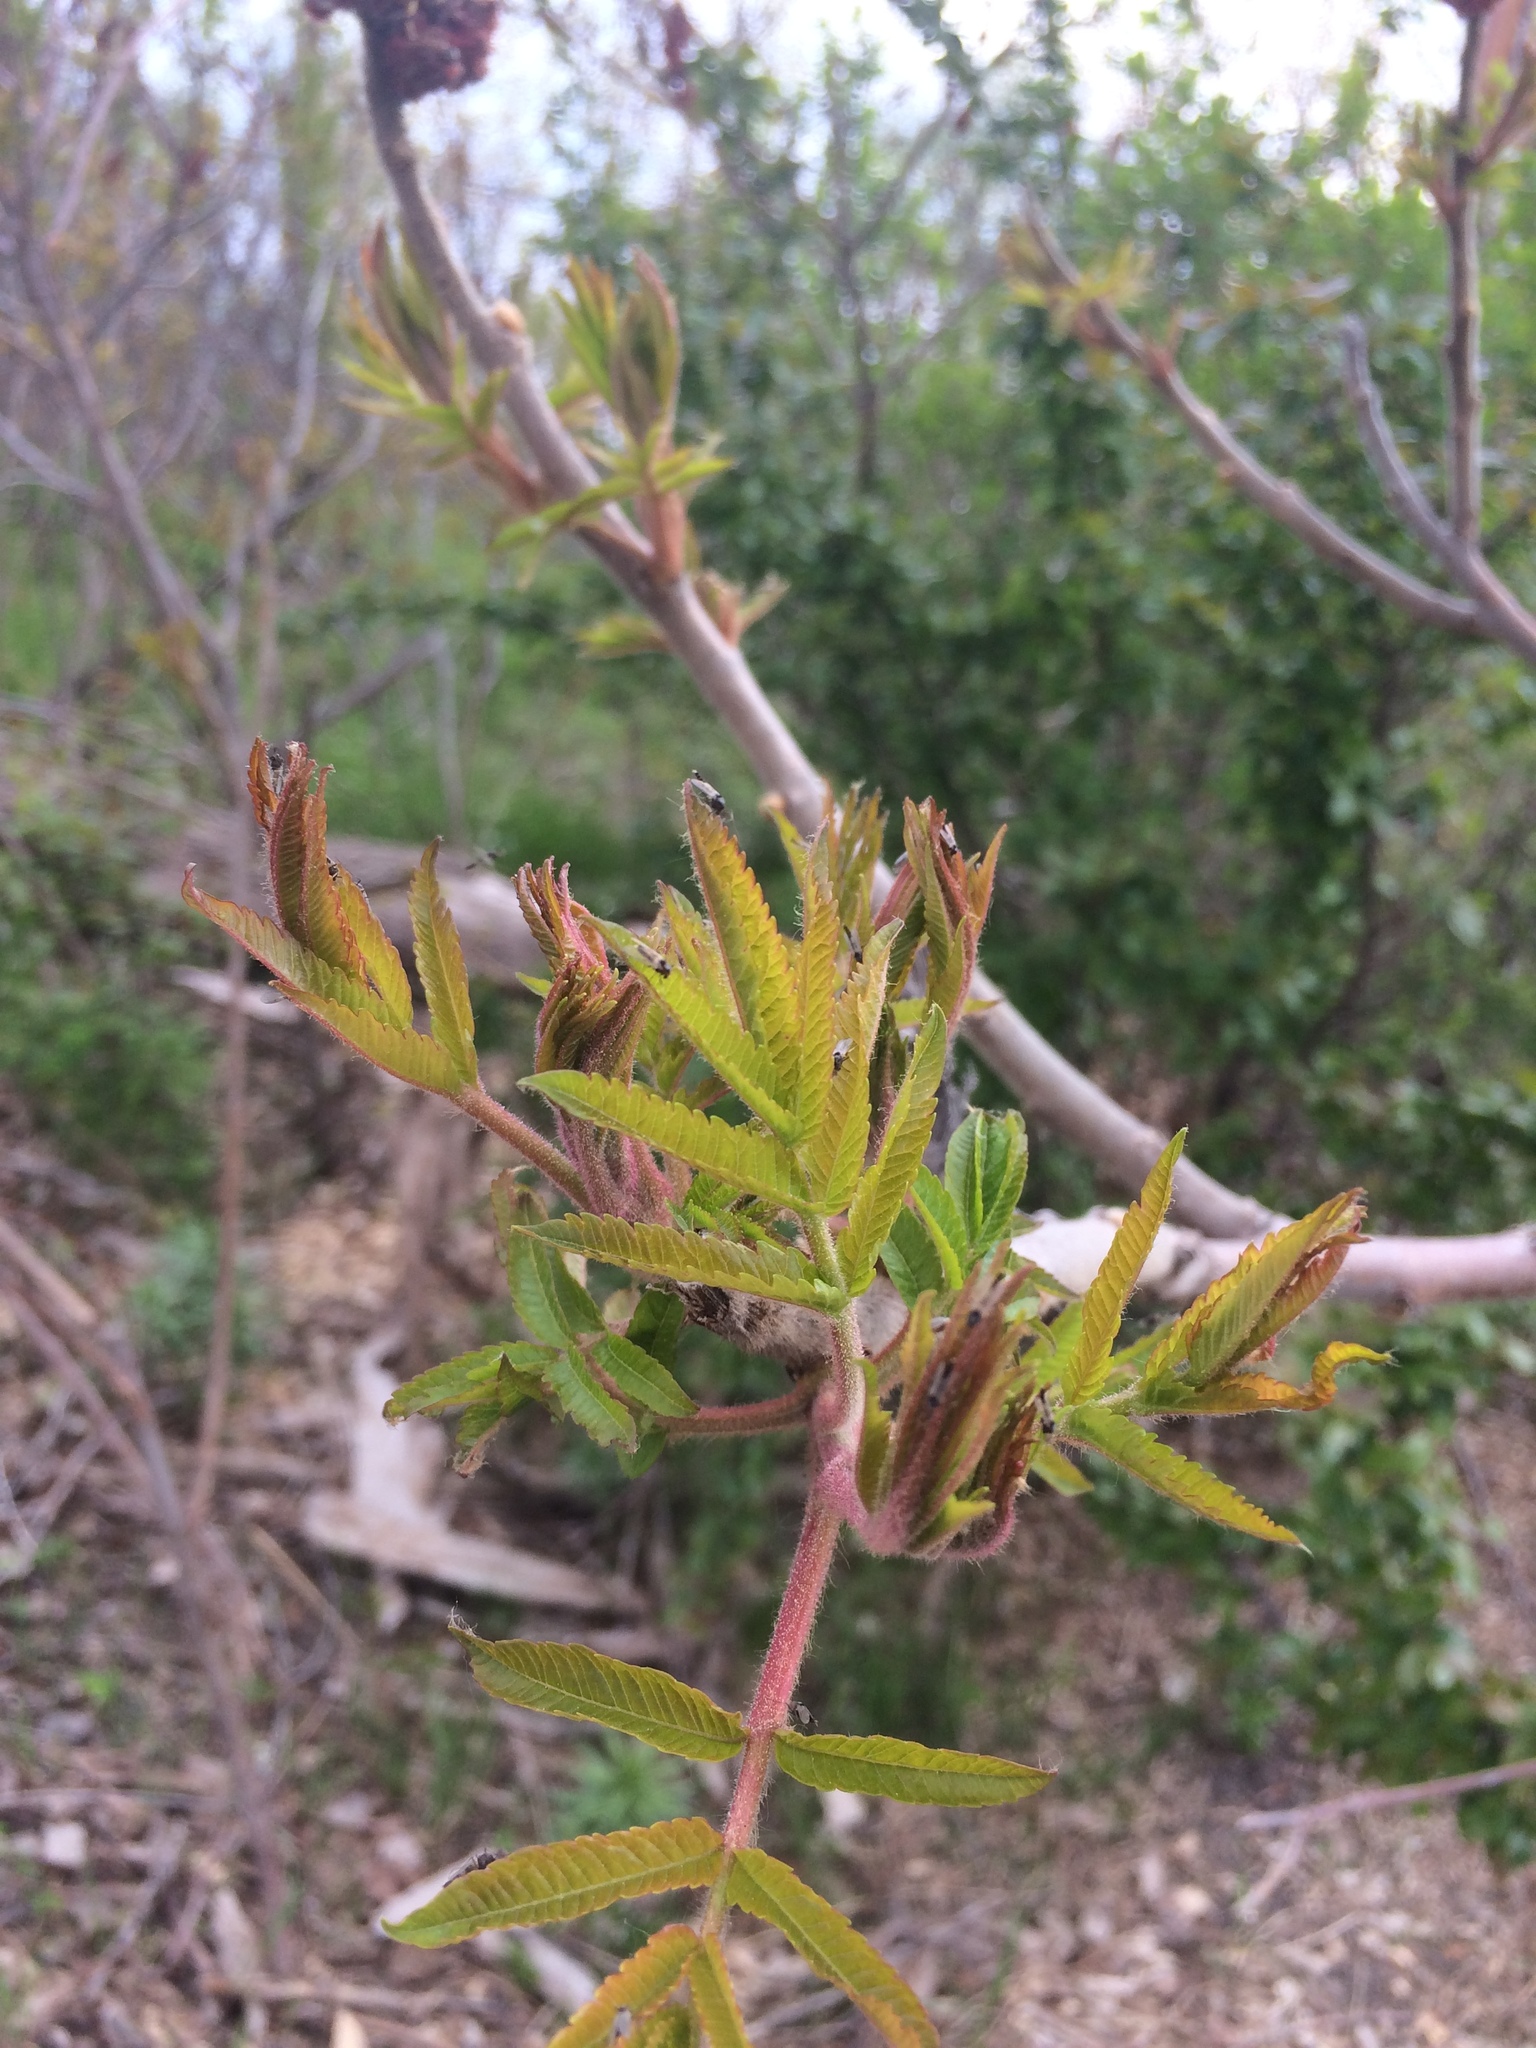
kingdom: Plantae
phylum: Tracheophyta
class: Magnoliopsida
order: Sapindales
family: Anacardiaceae
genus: Rhus
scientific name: Rhus typhina
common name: Staghorn sumac
